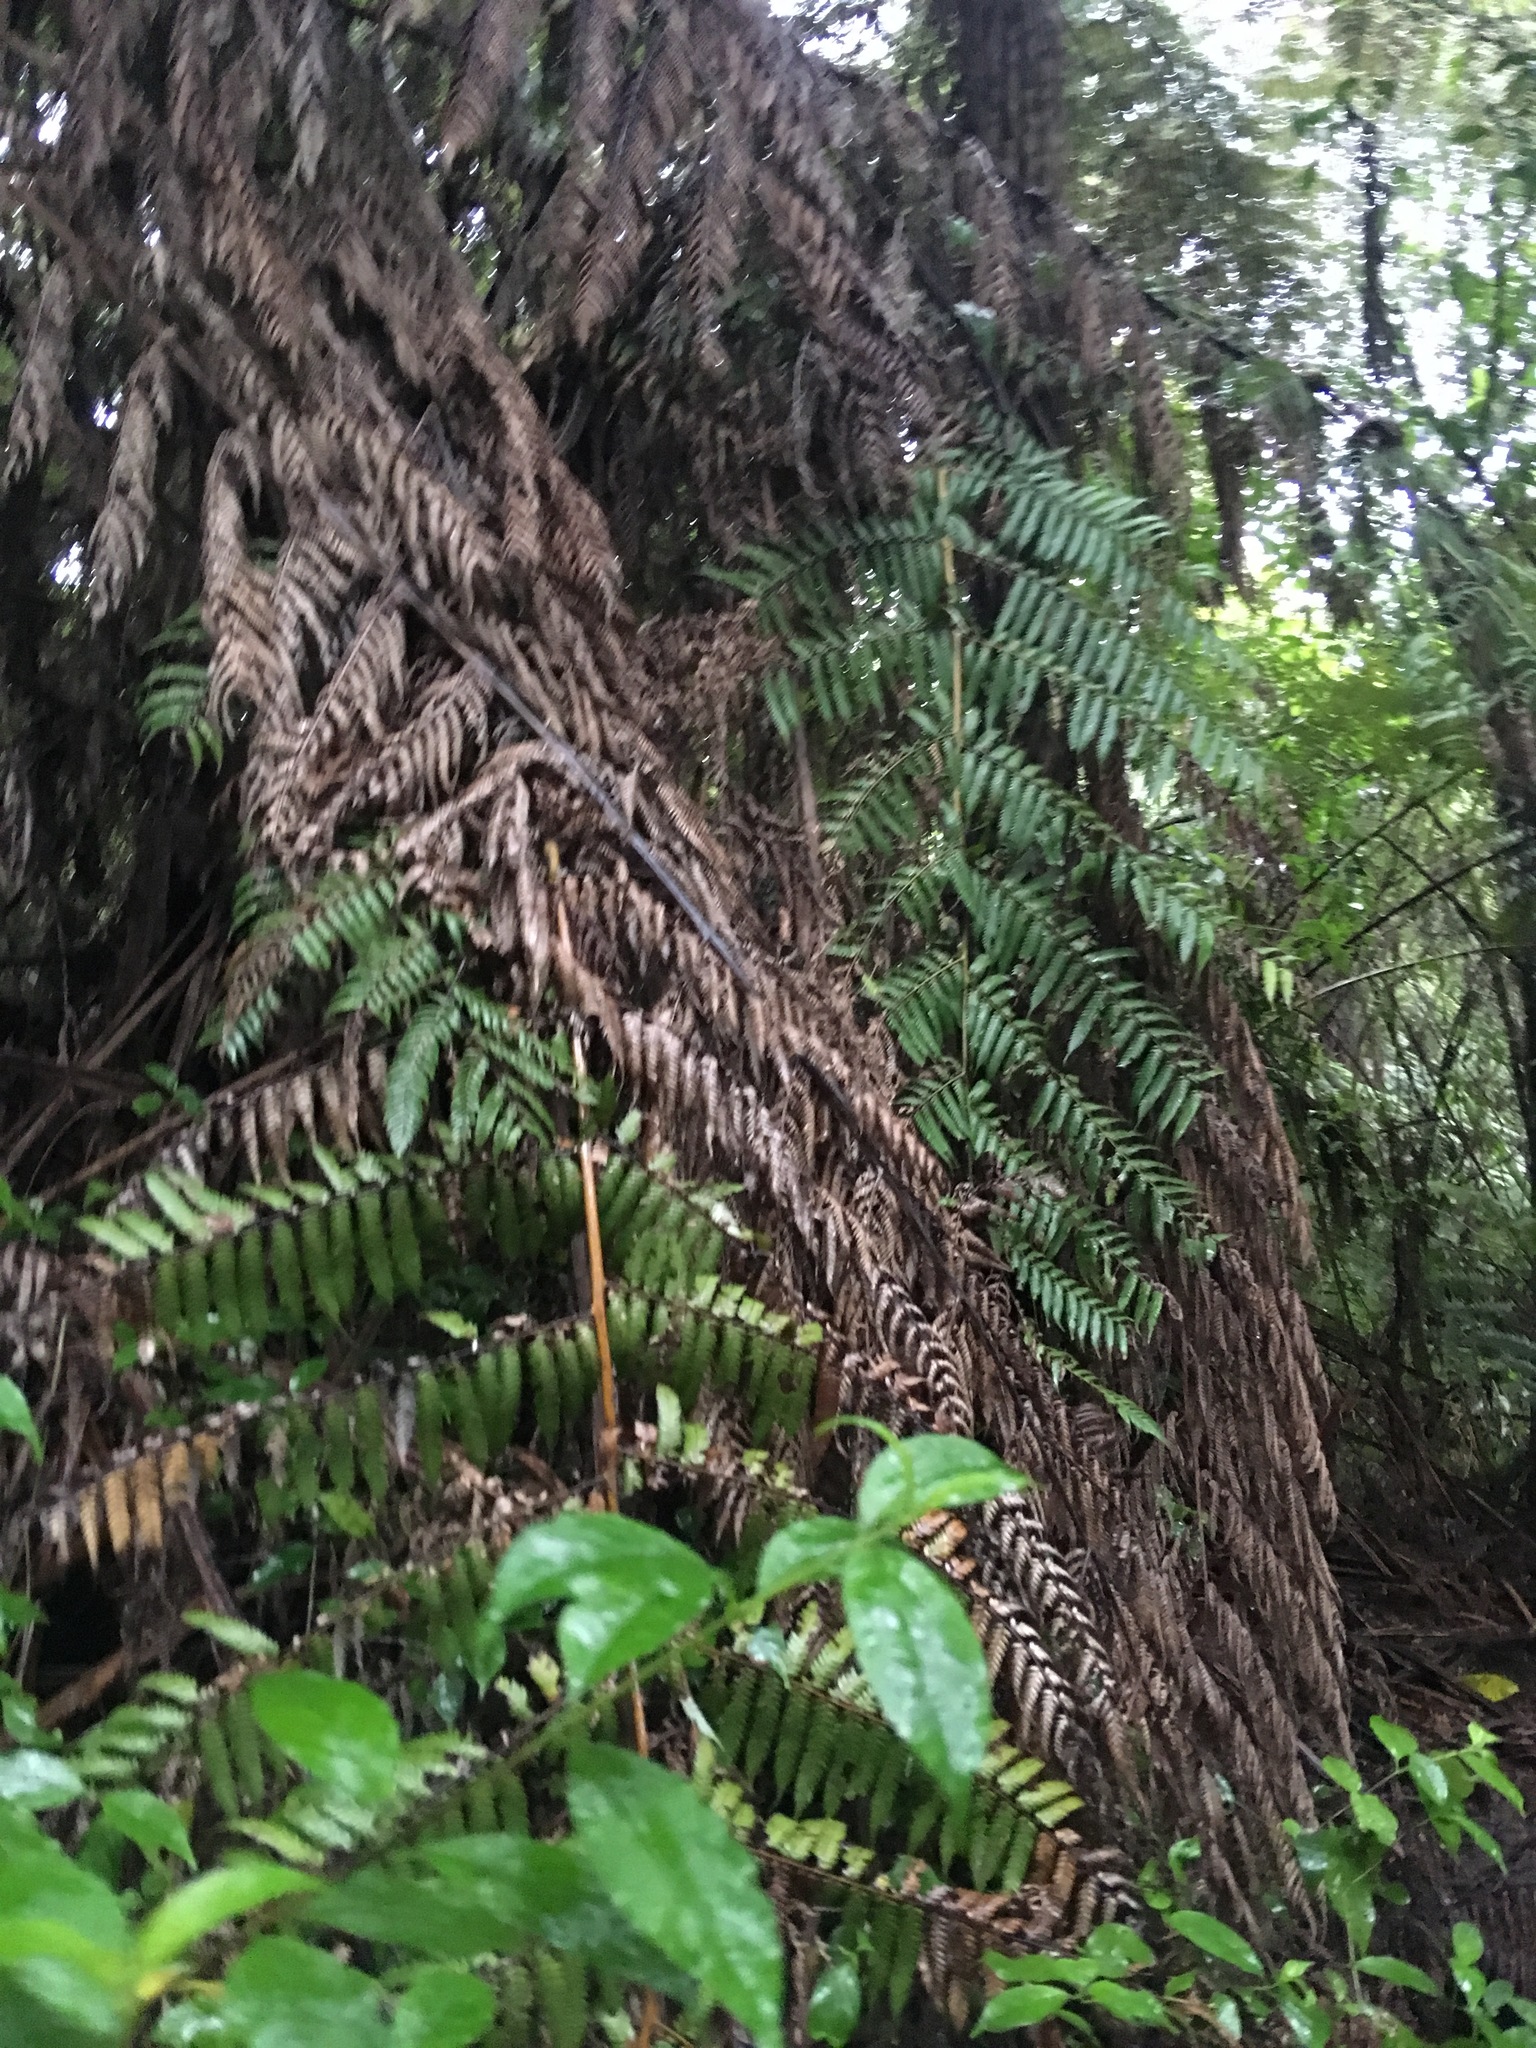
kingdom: Plantae
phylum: Tracheophyta
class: Polypodiopsida
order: Cyatheales
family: Cyatheaceae
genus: Alsophila
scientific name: Alsophila dealbata
